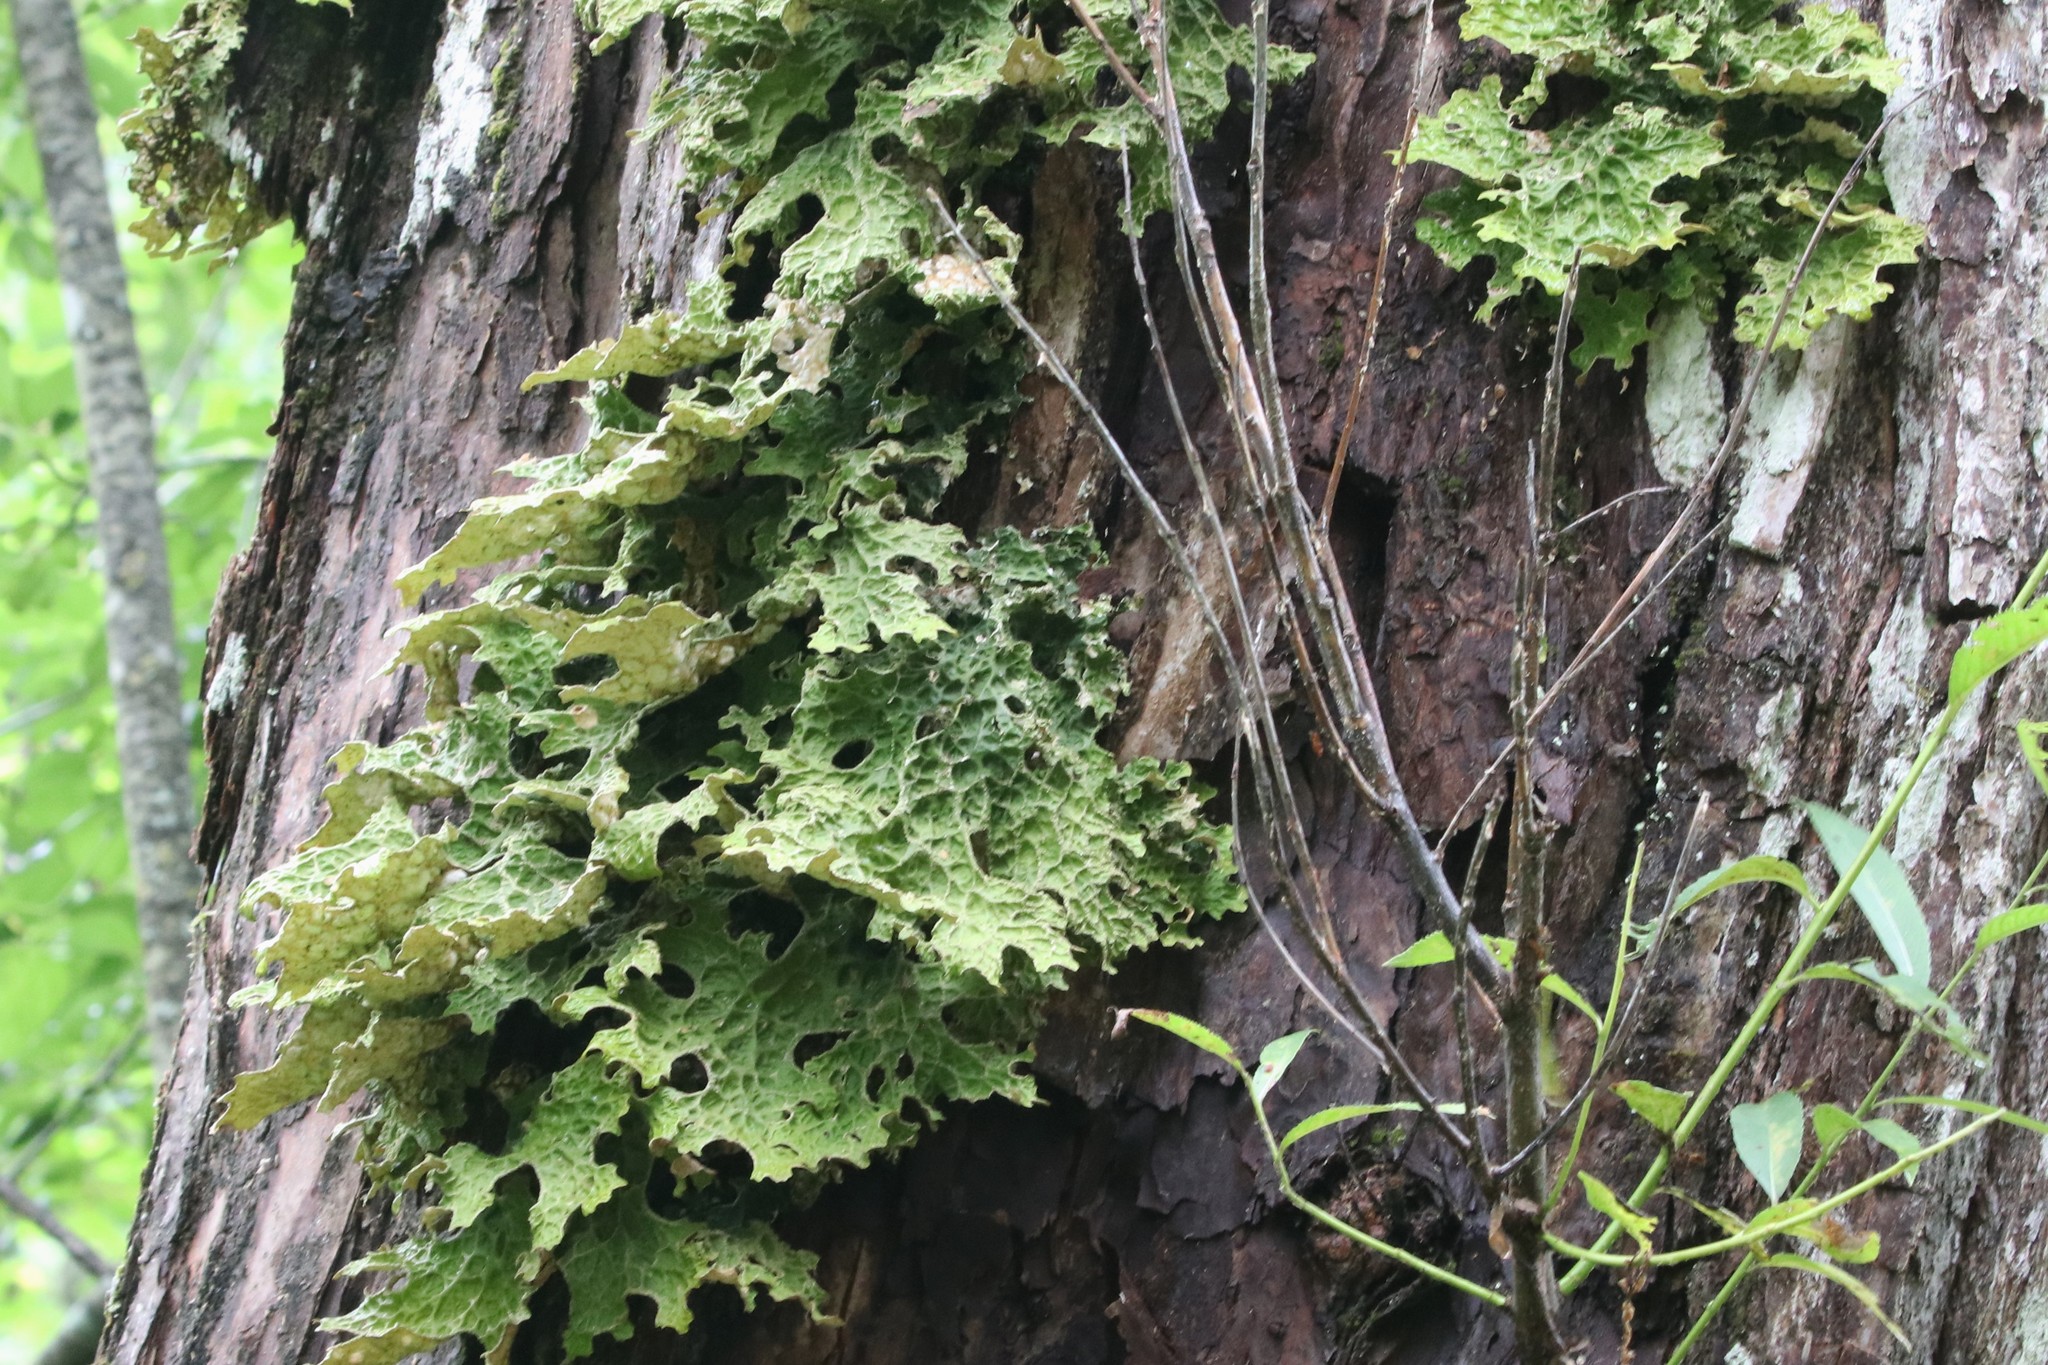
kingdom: Fungi
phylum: Ascomycota
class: Lecanoromycetes
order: Peltigerales
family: Lobariaceae
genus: Lobaria
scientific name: Lobaria pulmonaria
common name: Lungwort
